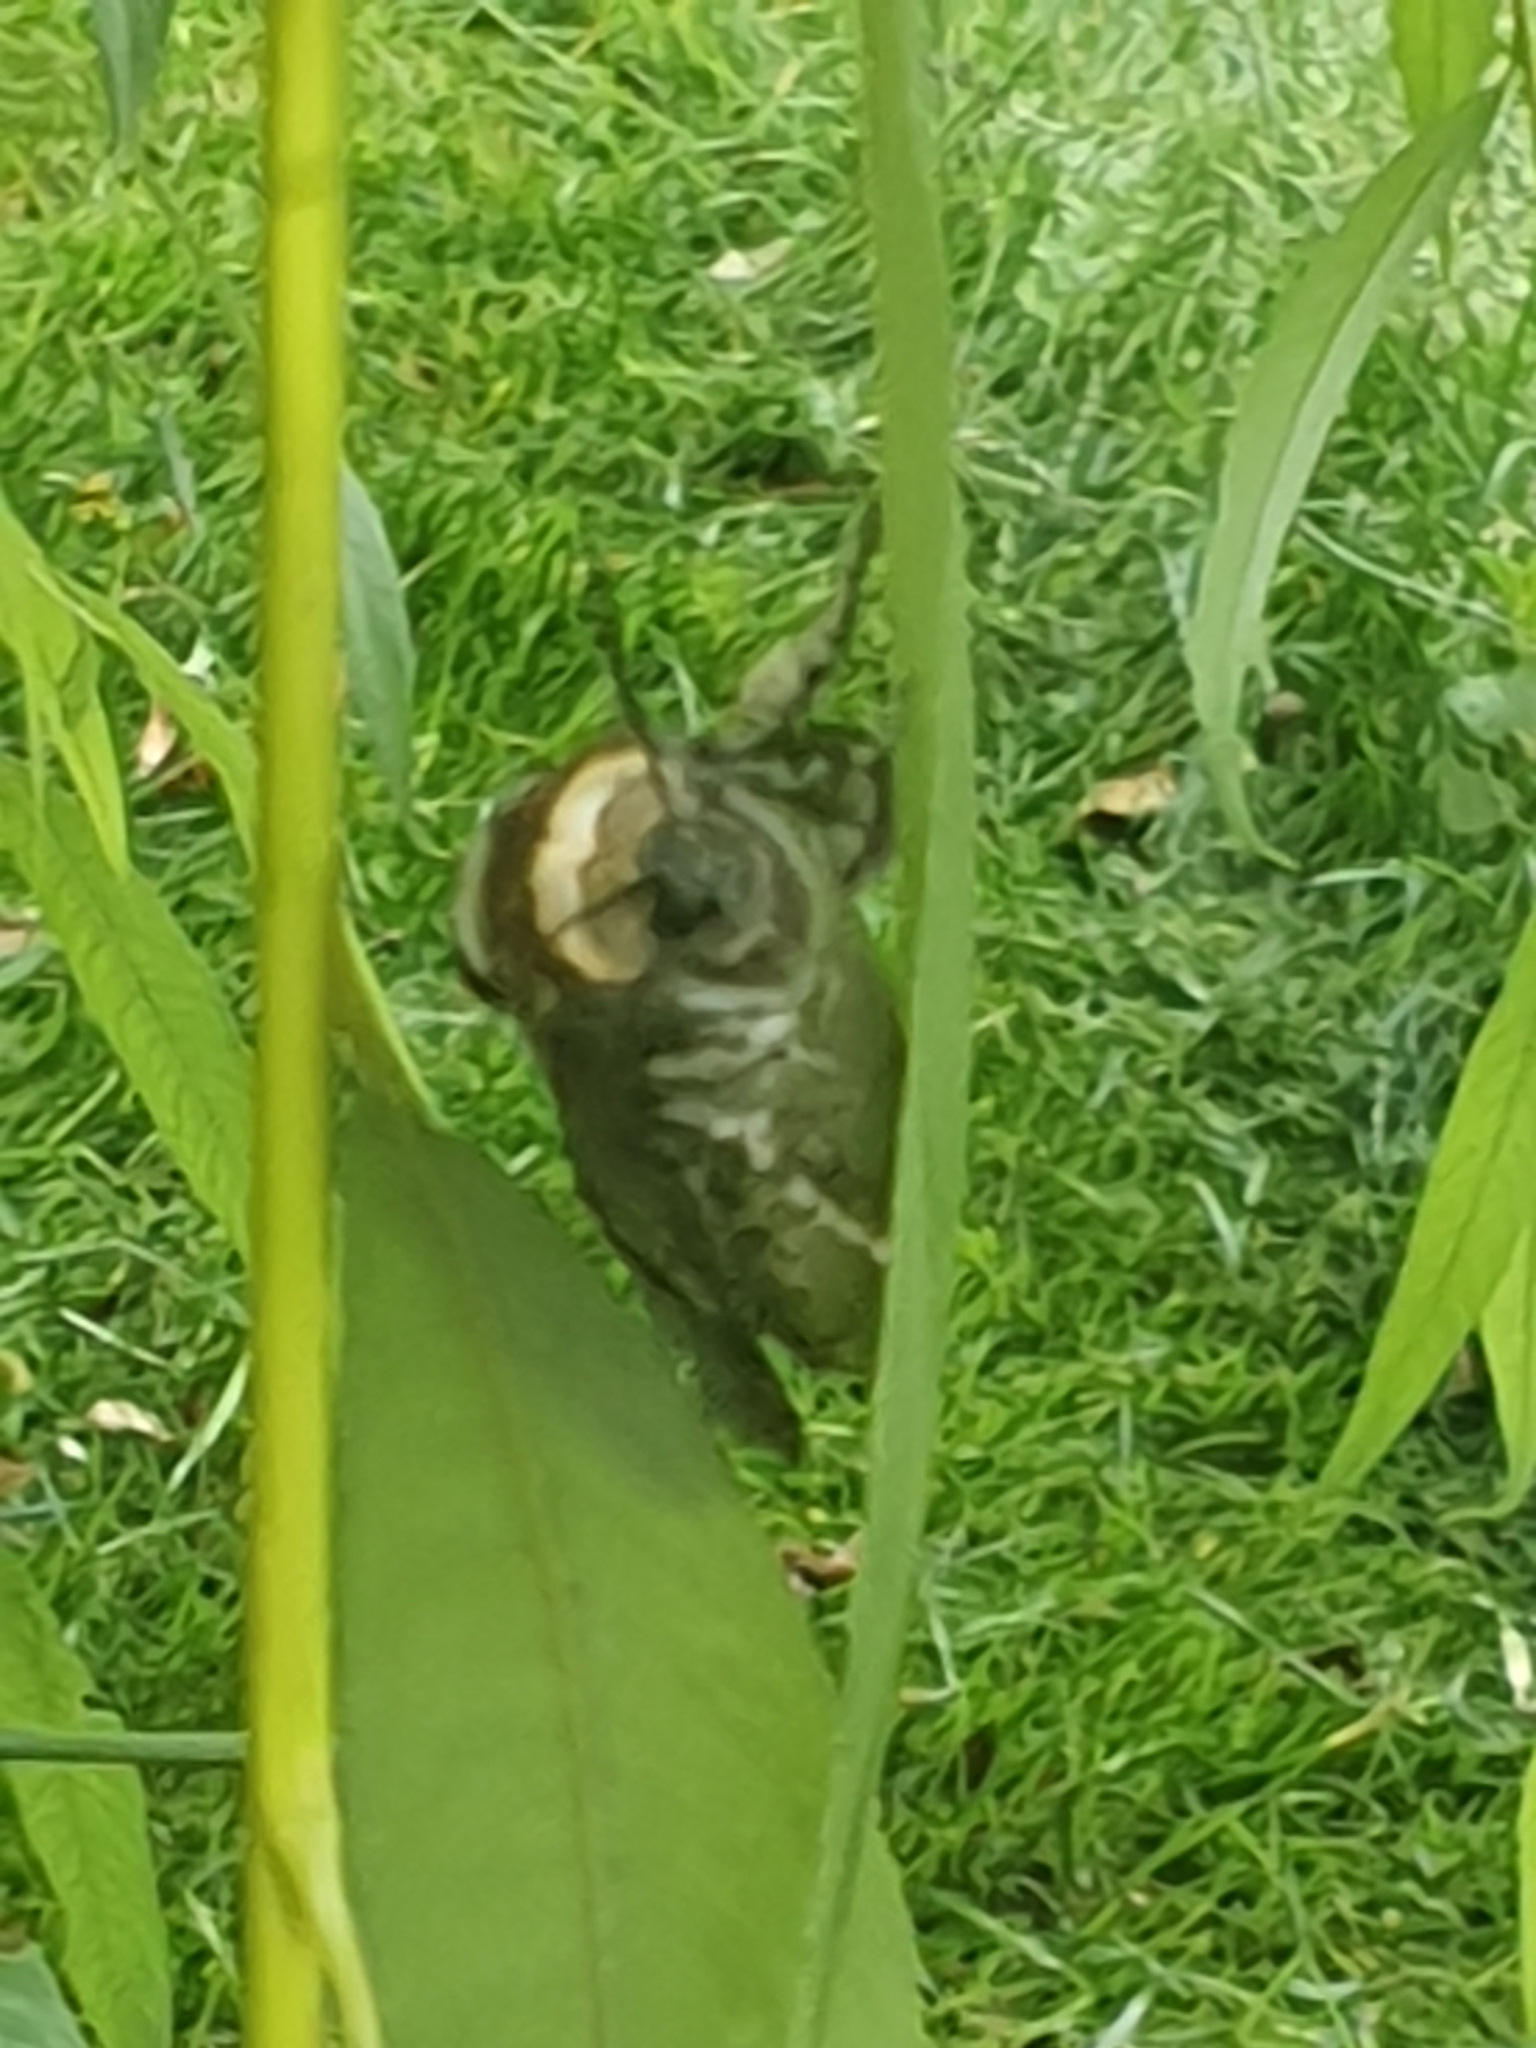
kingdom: Animalia
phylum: Arthropoda
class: Insecta
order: Lepidoptera
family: Cossidae
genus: Cossus
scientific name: Cossus cossus
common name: Goat moth
